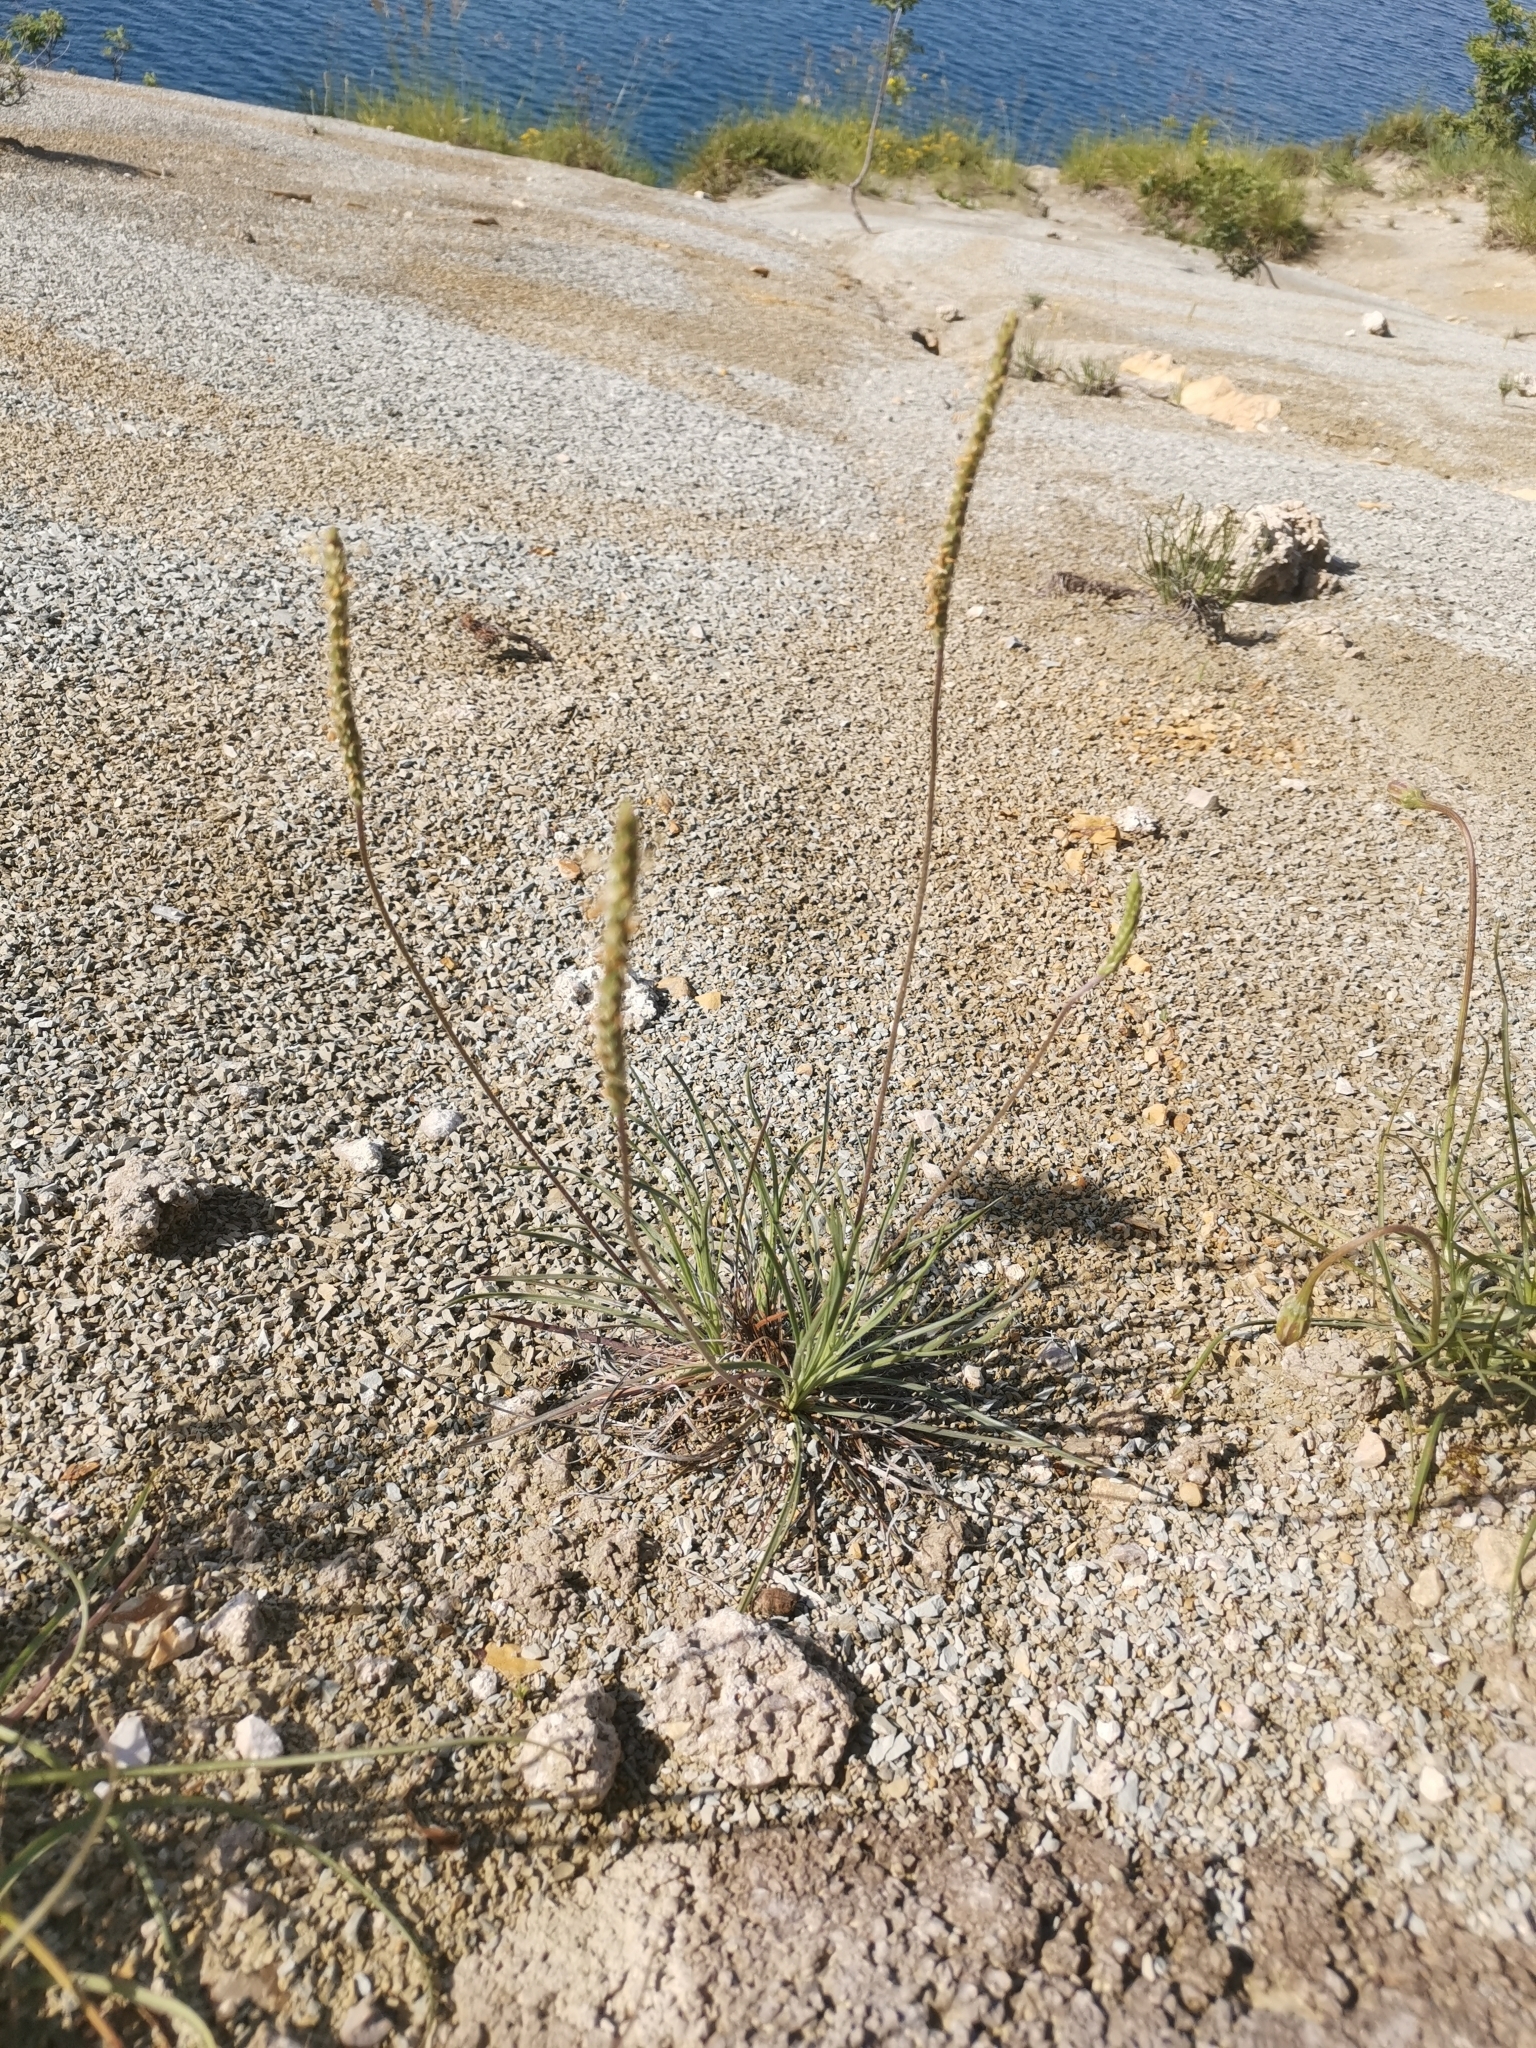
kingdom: Plantae
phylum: Tracheophyta
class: Magnoliopsida
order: Lamiales
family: Plantaginaceae
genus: Plantago
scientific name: Plantago subulata
